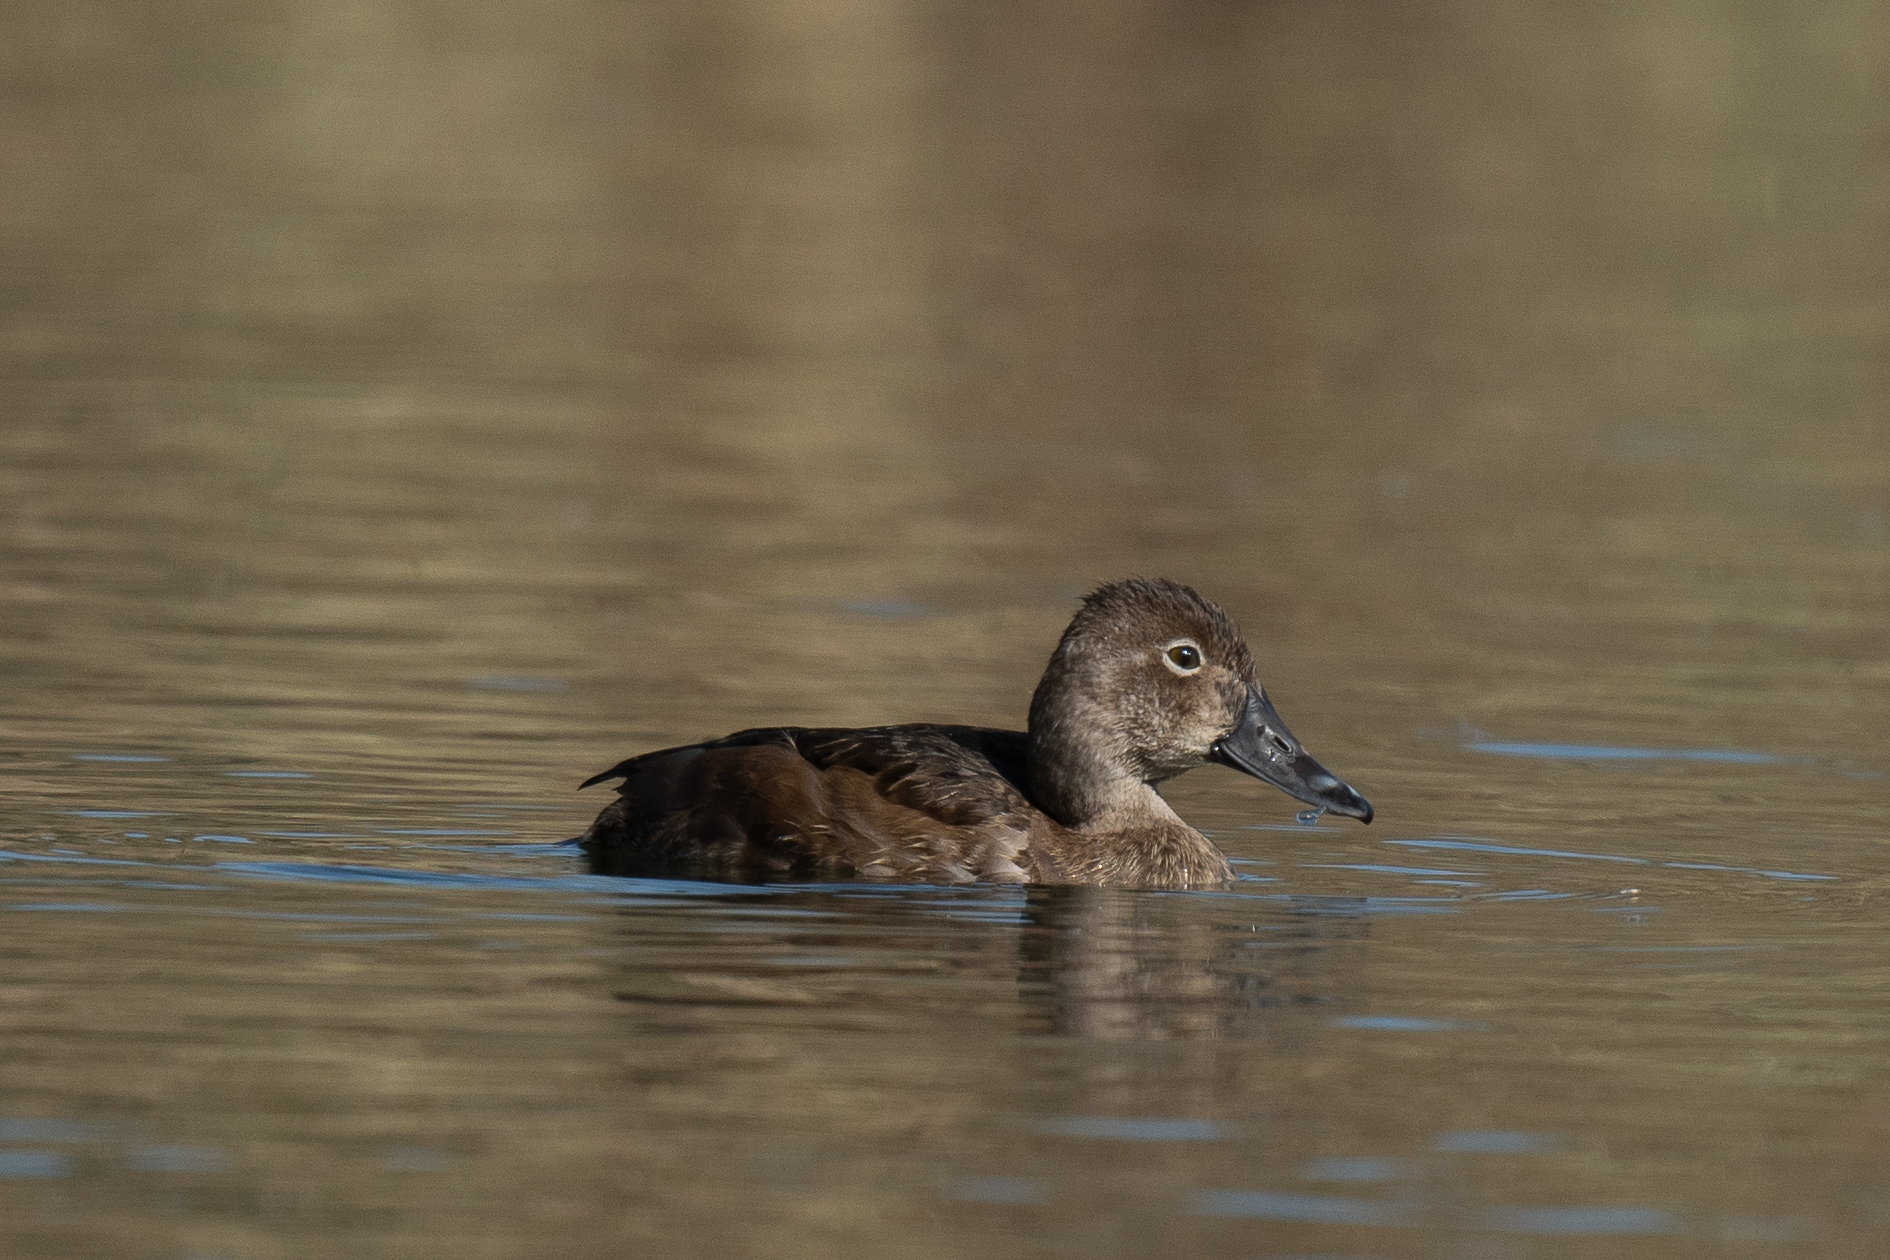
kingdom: Animalia
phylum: Chordata
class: Aves
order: Anseriformes
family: Anatidae
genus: Aythya
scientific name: Aythya collaris
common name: Ring-necked duck
